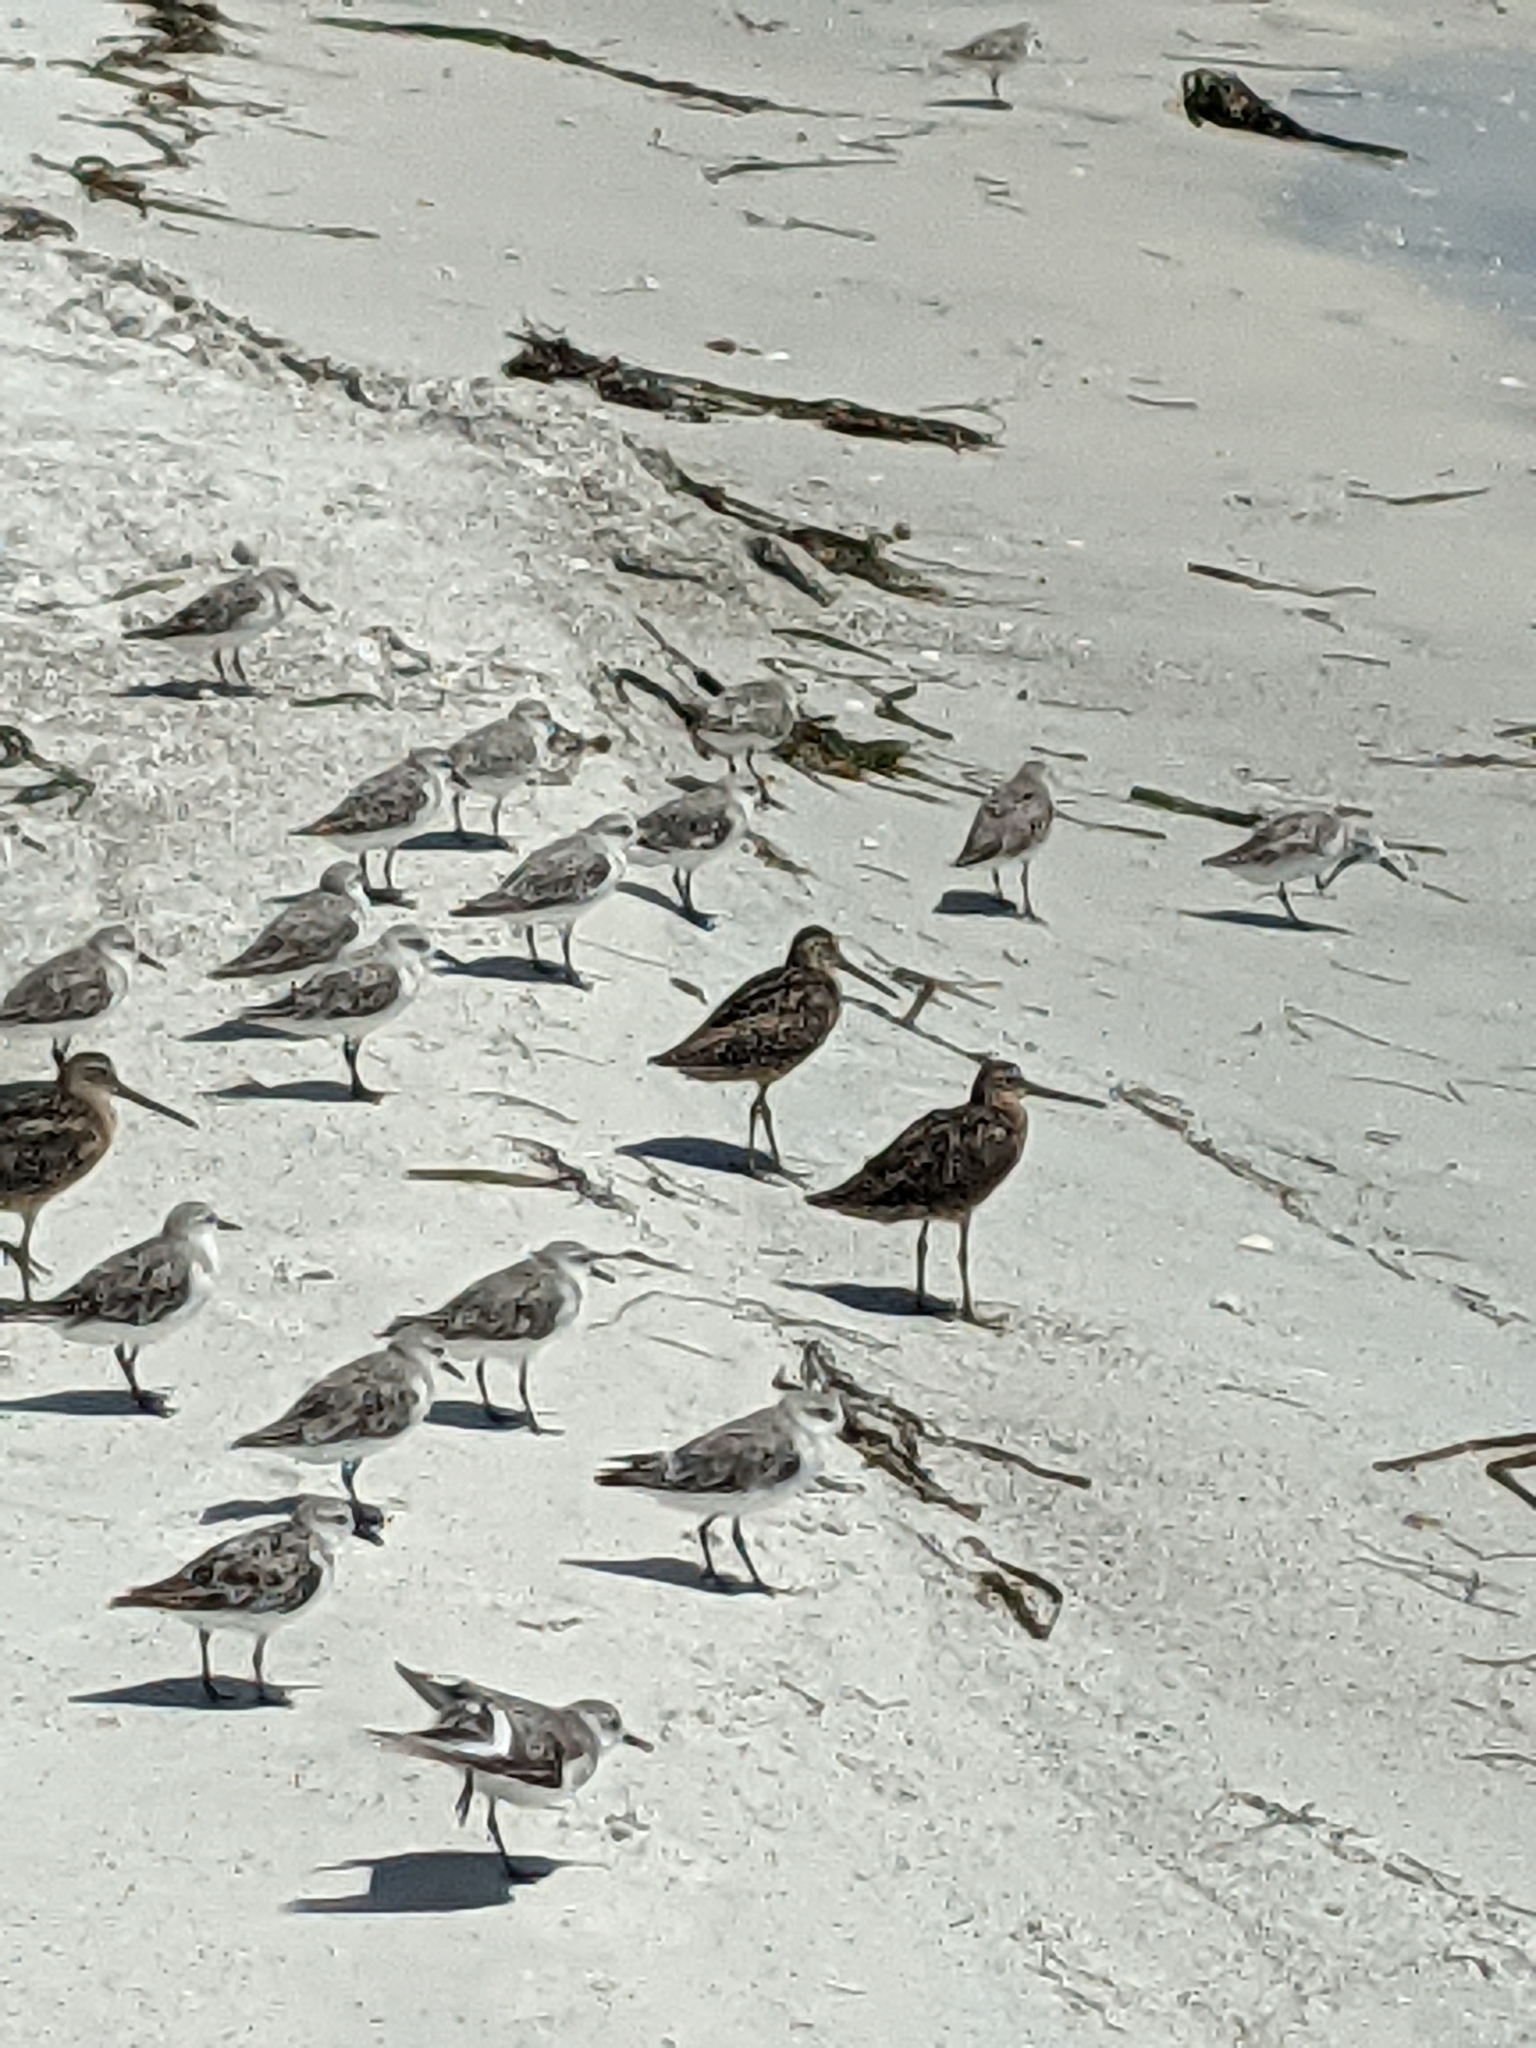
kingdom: Animalia
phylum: Chordata
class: Aves
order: Charadriiformes
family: Scolopacidae
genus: Limnodromus
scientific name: Limnodromus griseus
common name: Short-billed dowitcher
